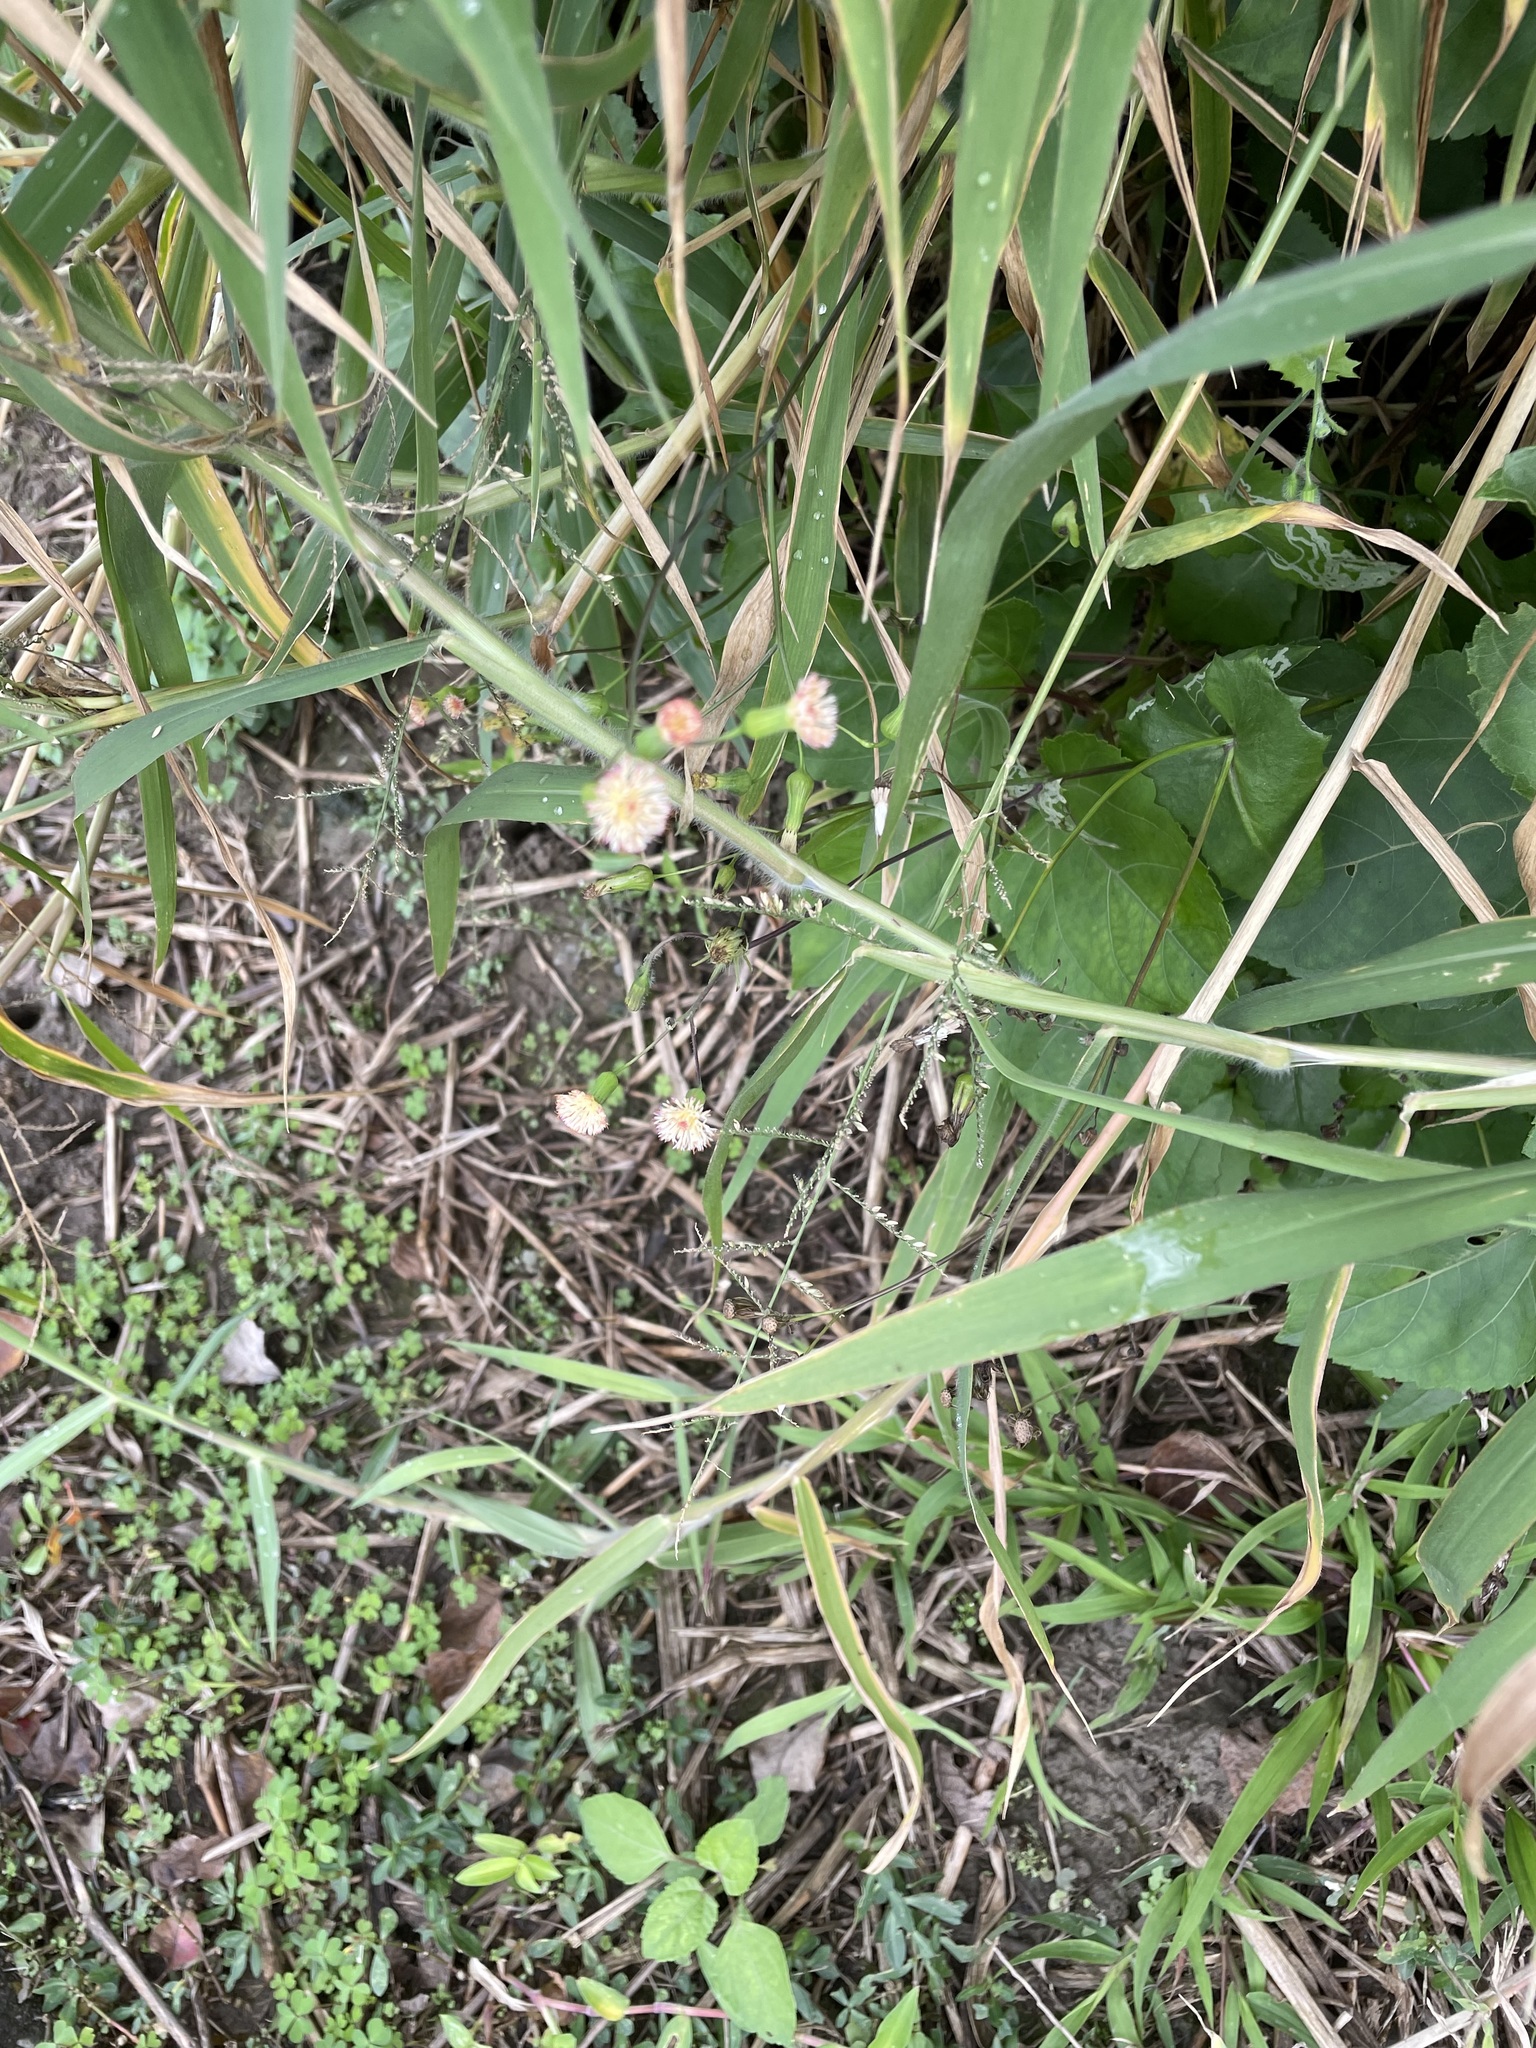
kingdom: Plantae
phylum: Tracheophyta
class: Magnoliopsida
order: Asterales
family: Asteraceae
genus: Emilia
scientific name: Emilia praetermissa
